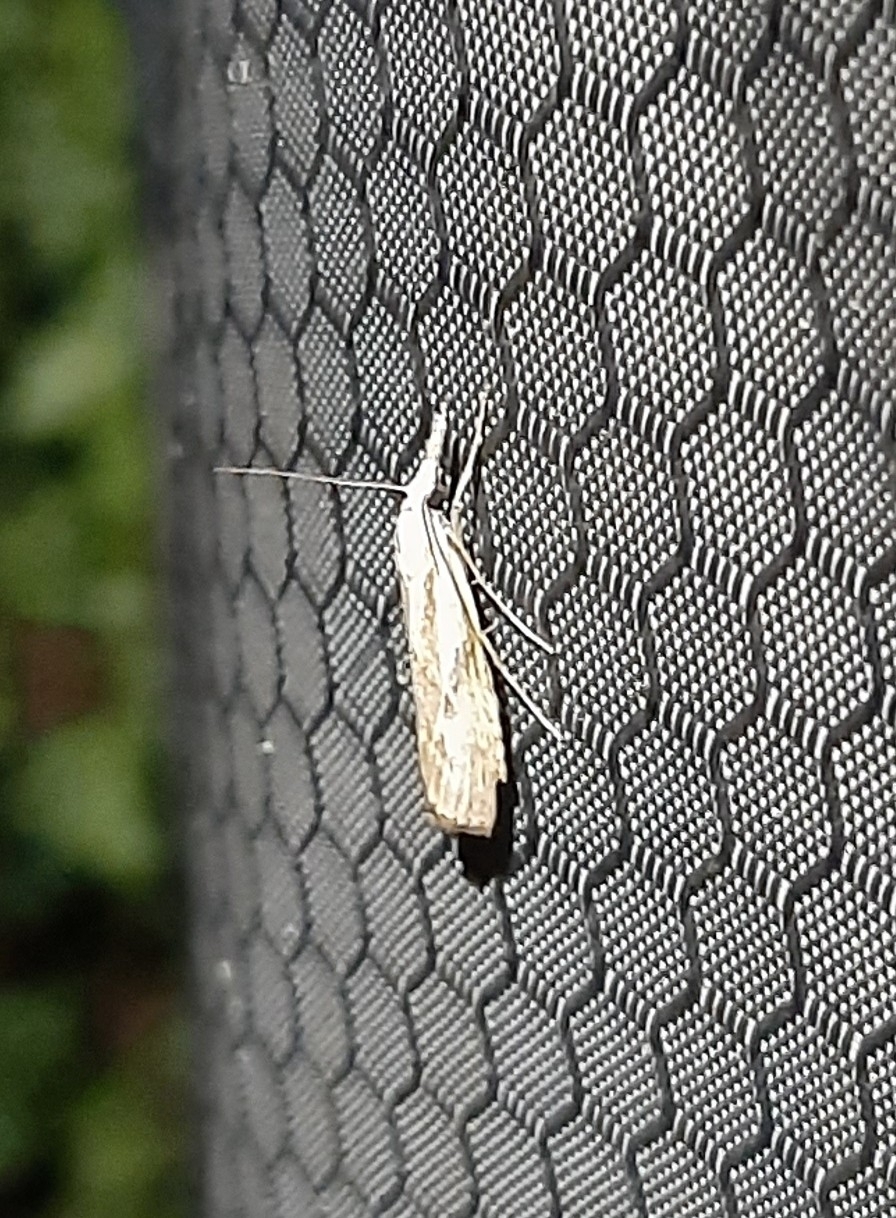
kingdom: Animalia
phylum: Arthropoda
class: Insecta
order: Lepidoptera
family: Crambidae
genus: Catoptria
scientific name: Catoptria falsella
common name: Chequered grass-veneer
